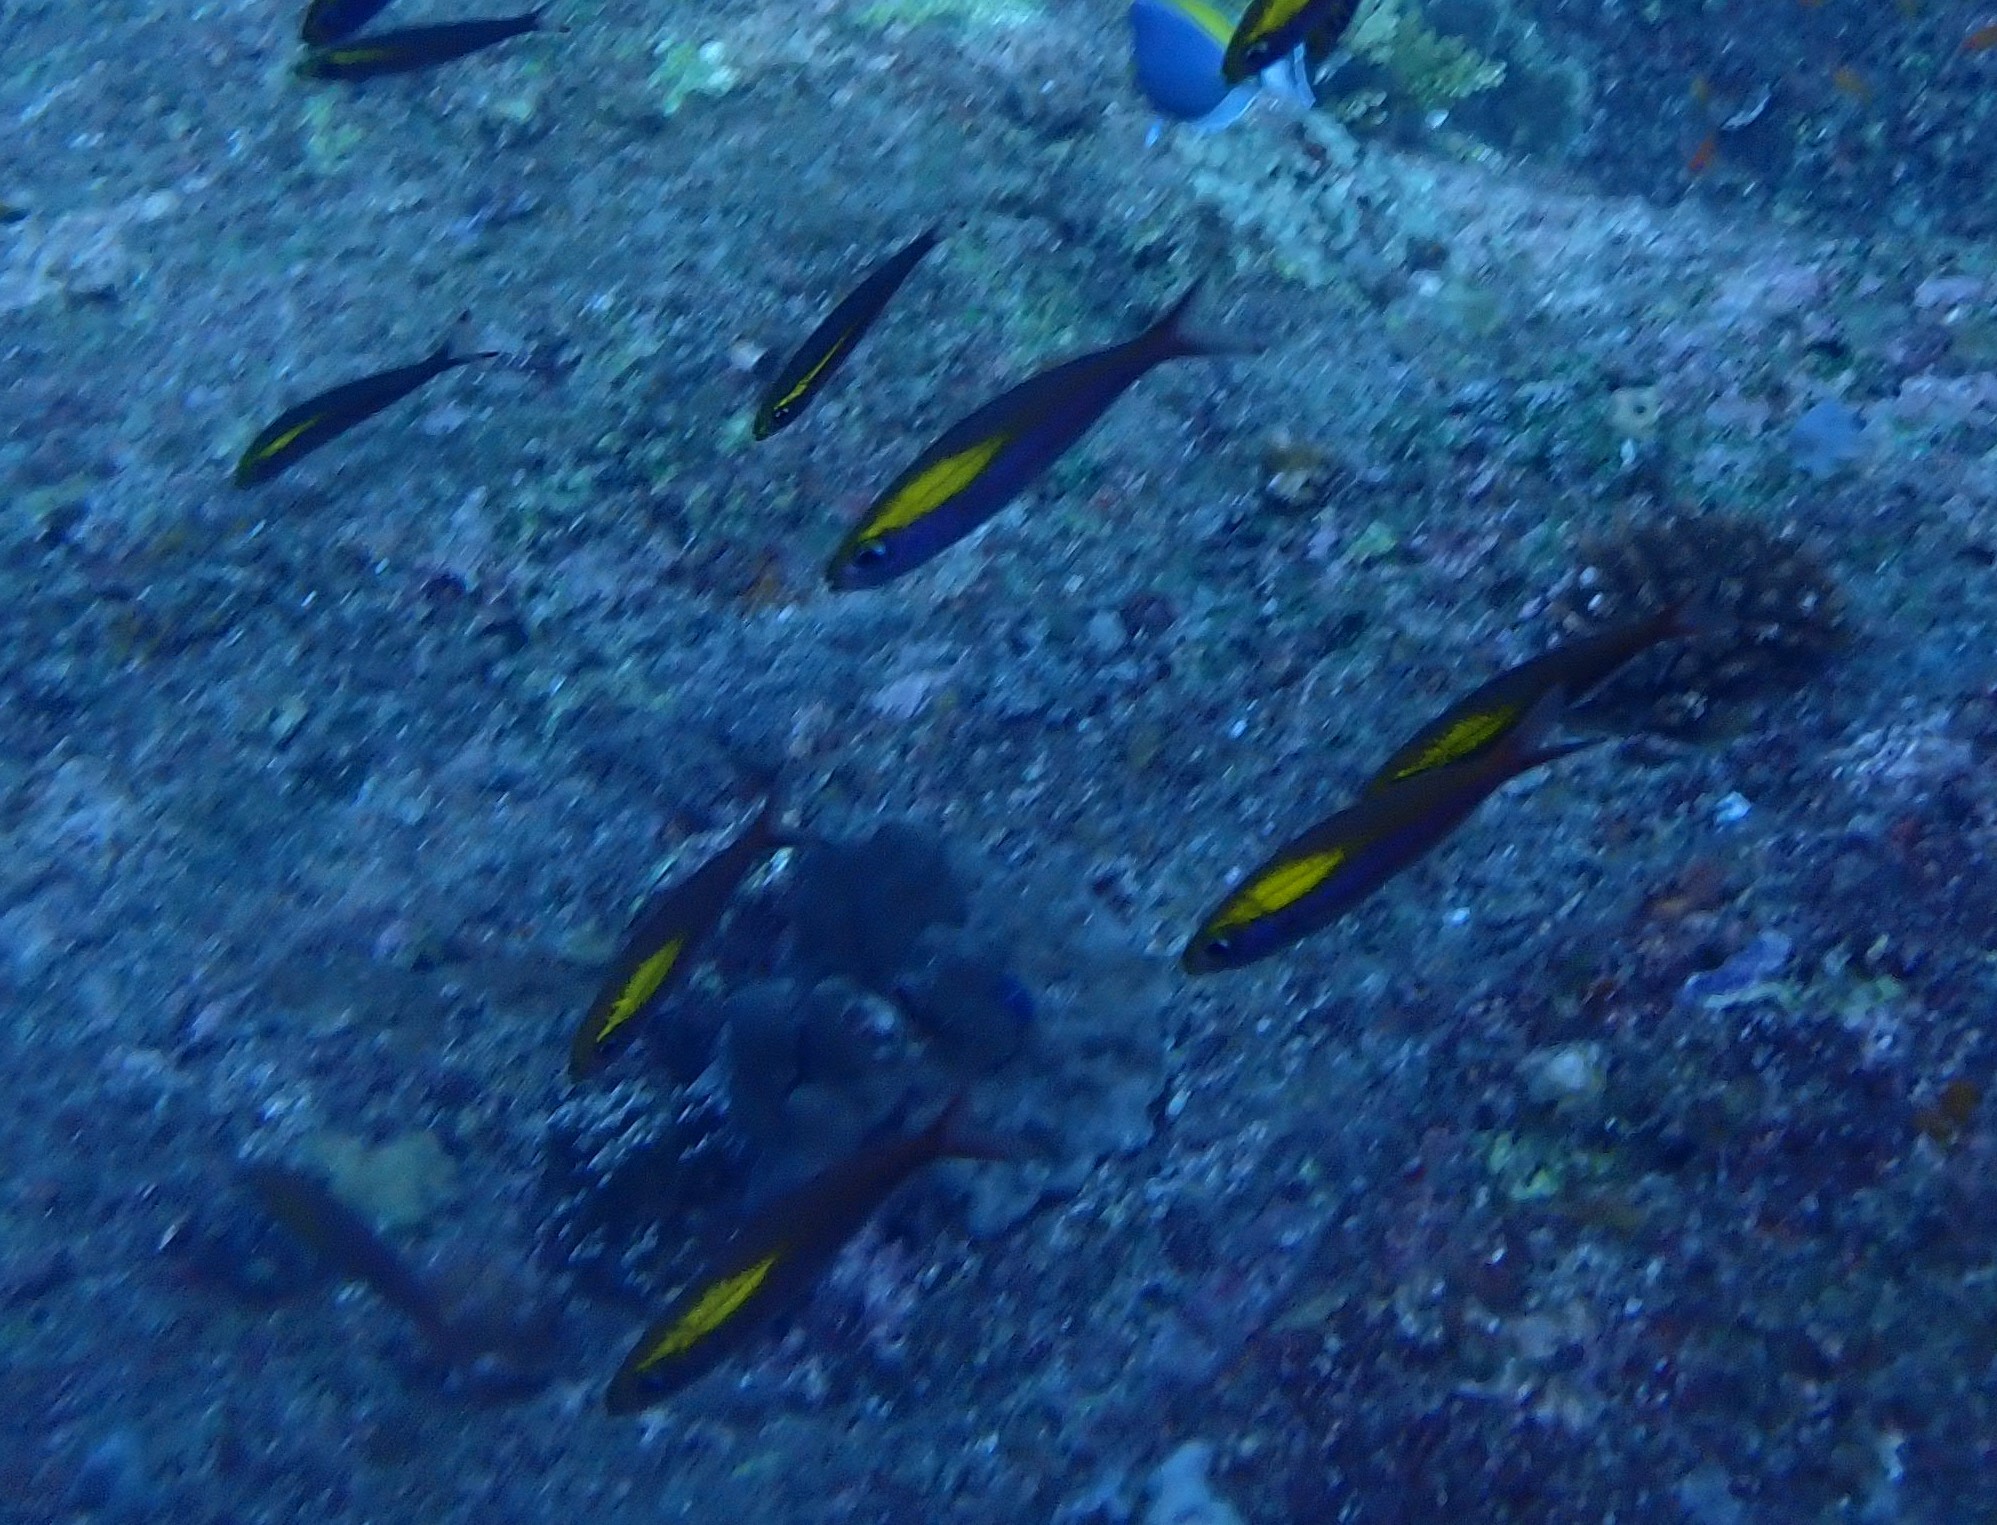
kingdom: Animalia
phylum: Chordata
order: Perciformes
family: Caesionidae
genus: Pterocaesio
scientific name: Pterocaesio randalli
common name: Randall's fusilier
